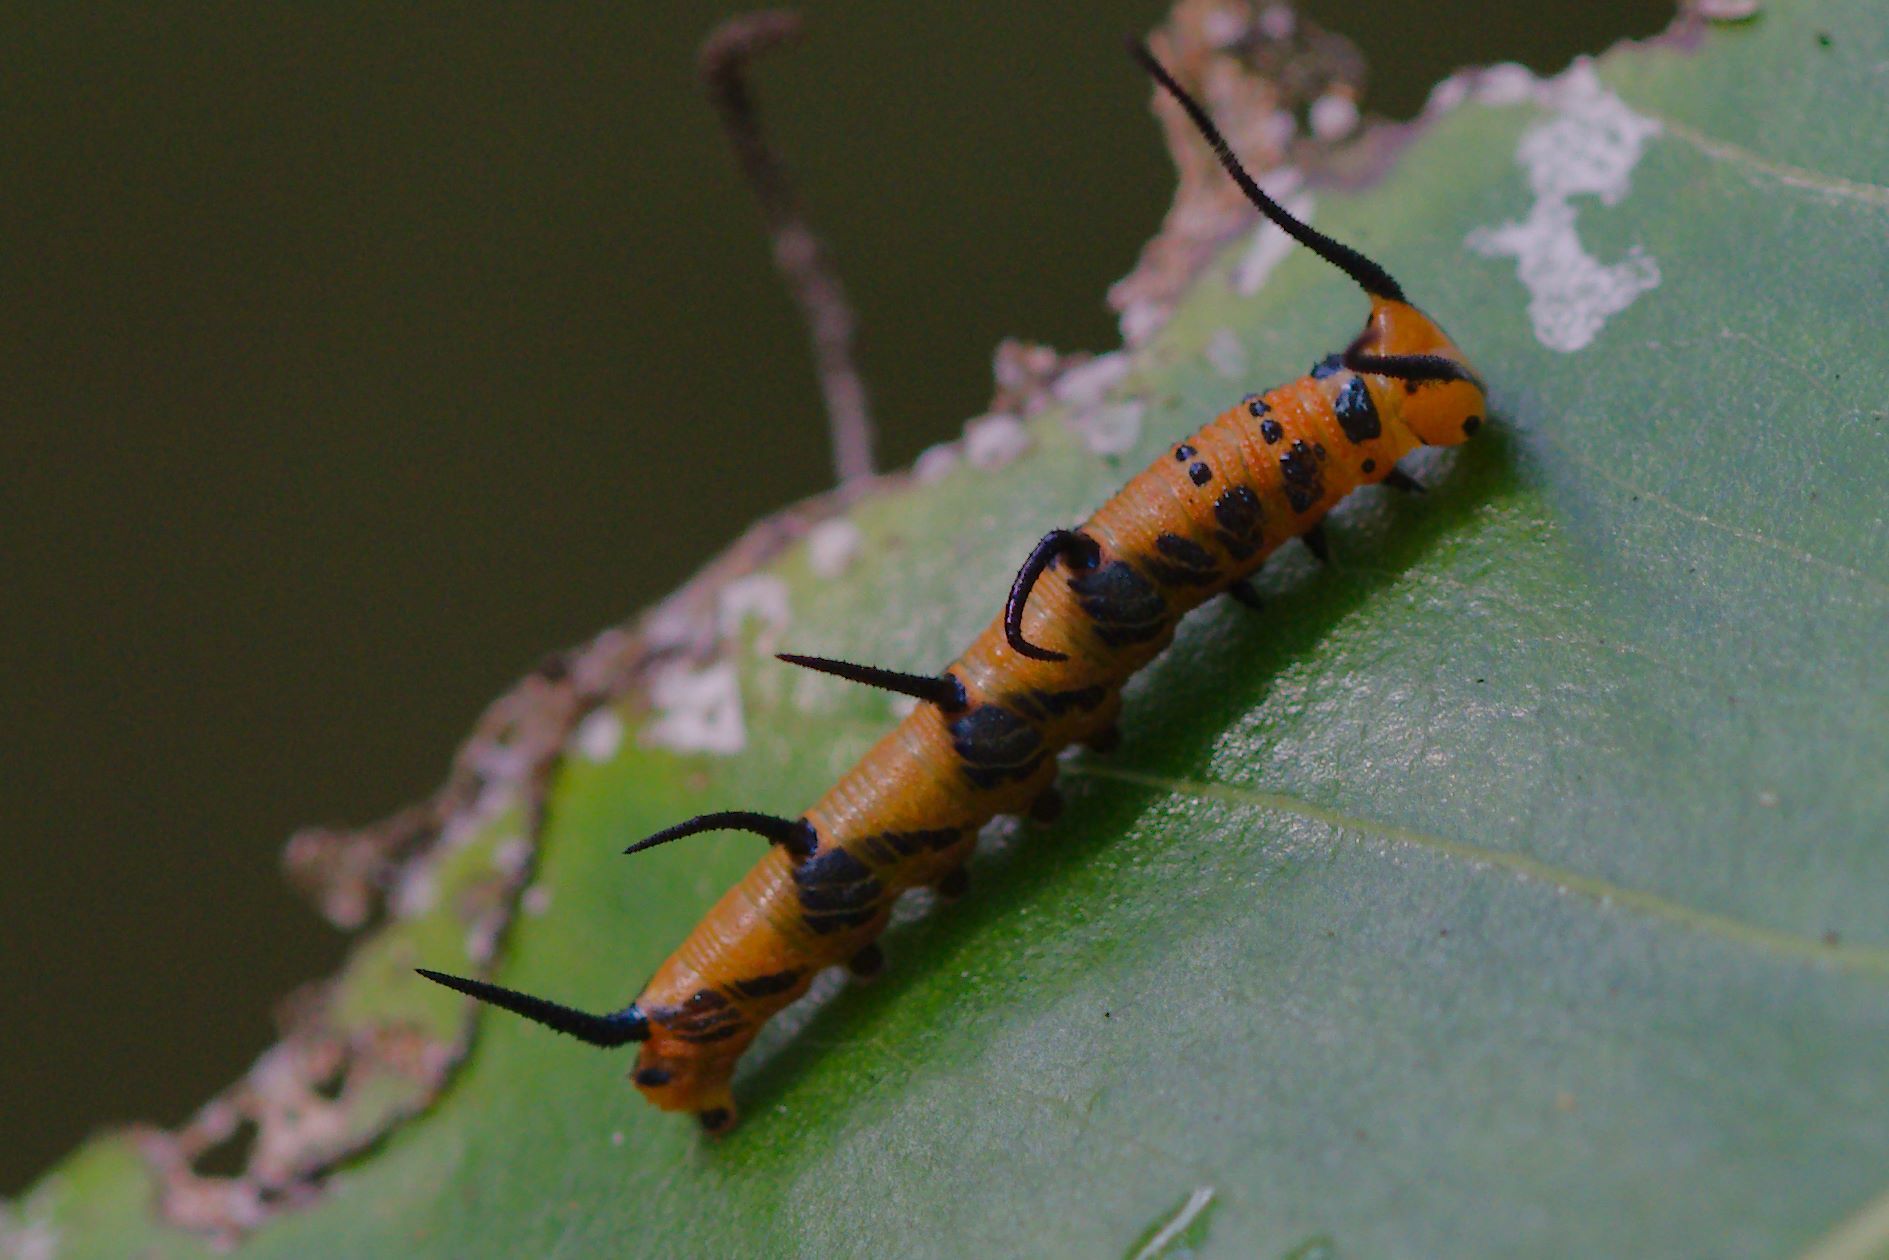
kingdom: Animalia
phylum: Arthropoda
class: Insecta
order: Lepidoptera
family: Nymphalidae
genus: Marpesia
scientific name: Marpesia petreus
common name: Red dagger wing
